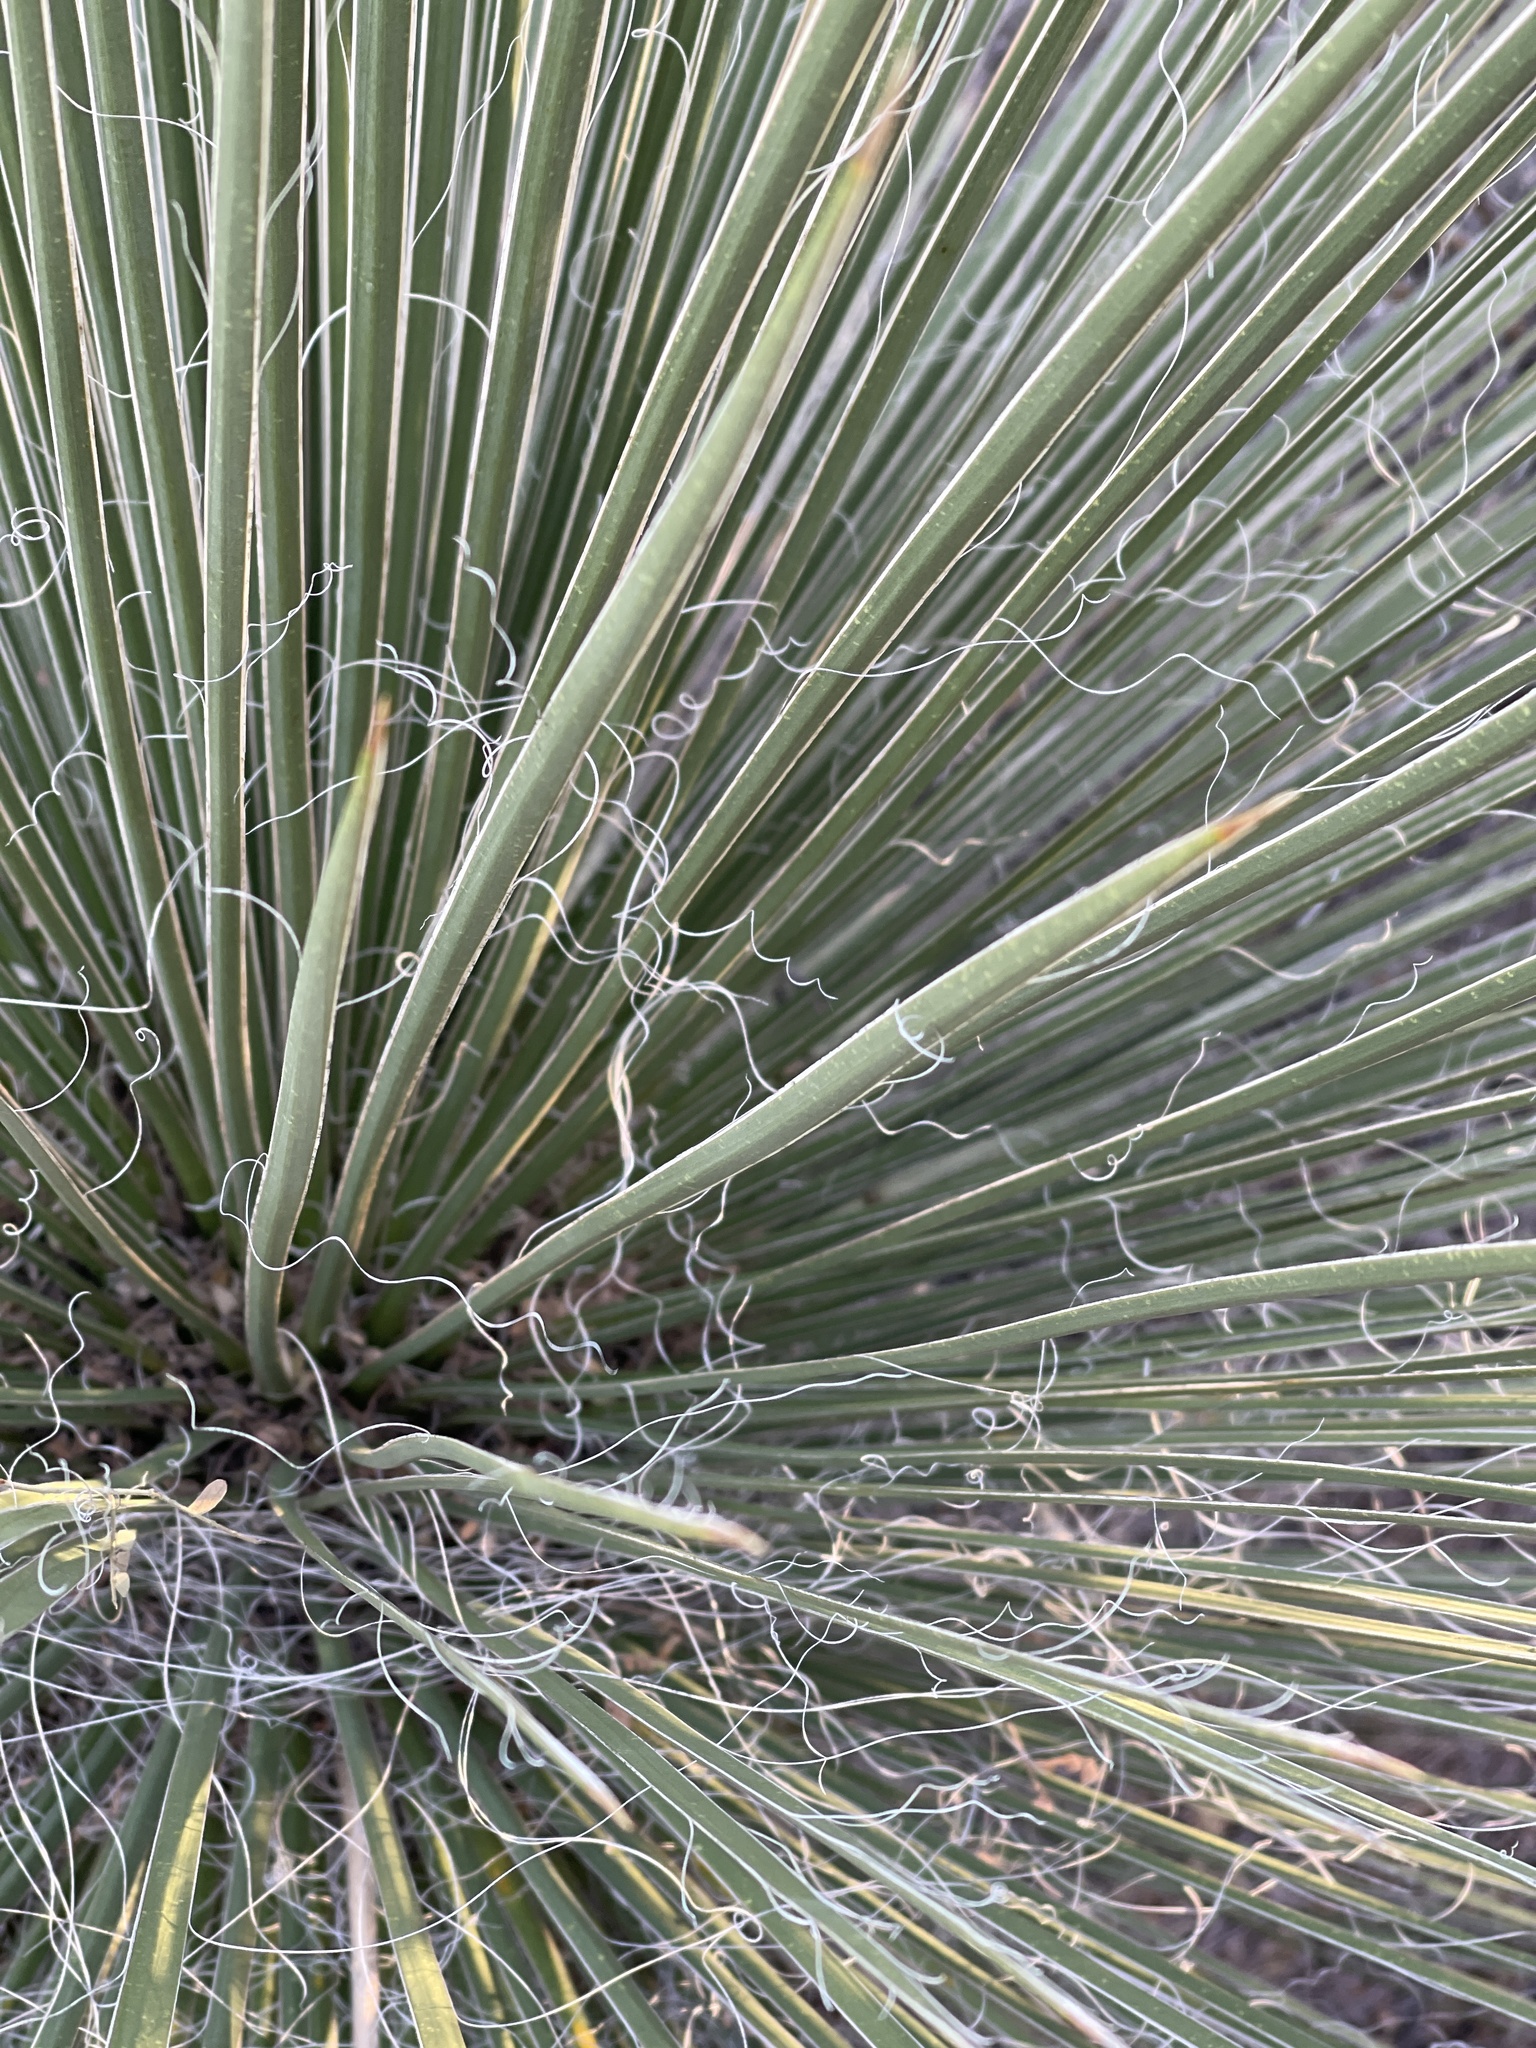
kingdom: Plantae
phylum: Tracheophyta
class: Liliopsida
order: Asparagales
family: Asparagaceae
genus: Yucca
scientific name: Yucca elata
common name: Palmella
